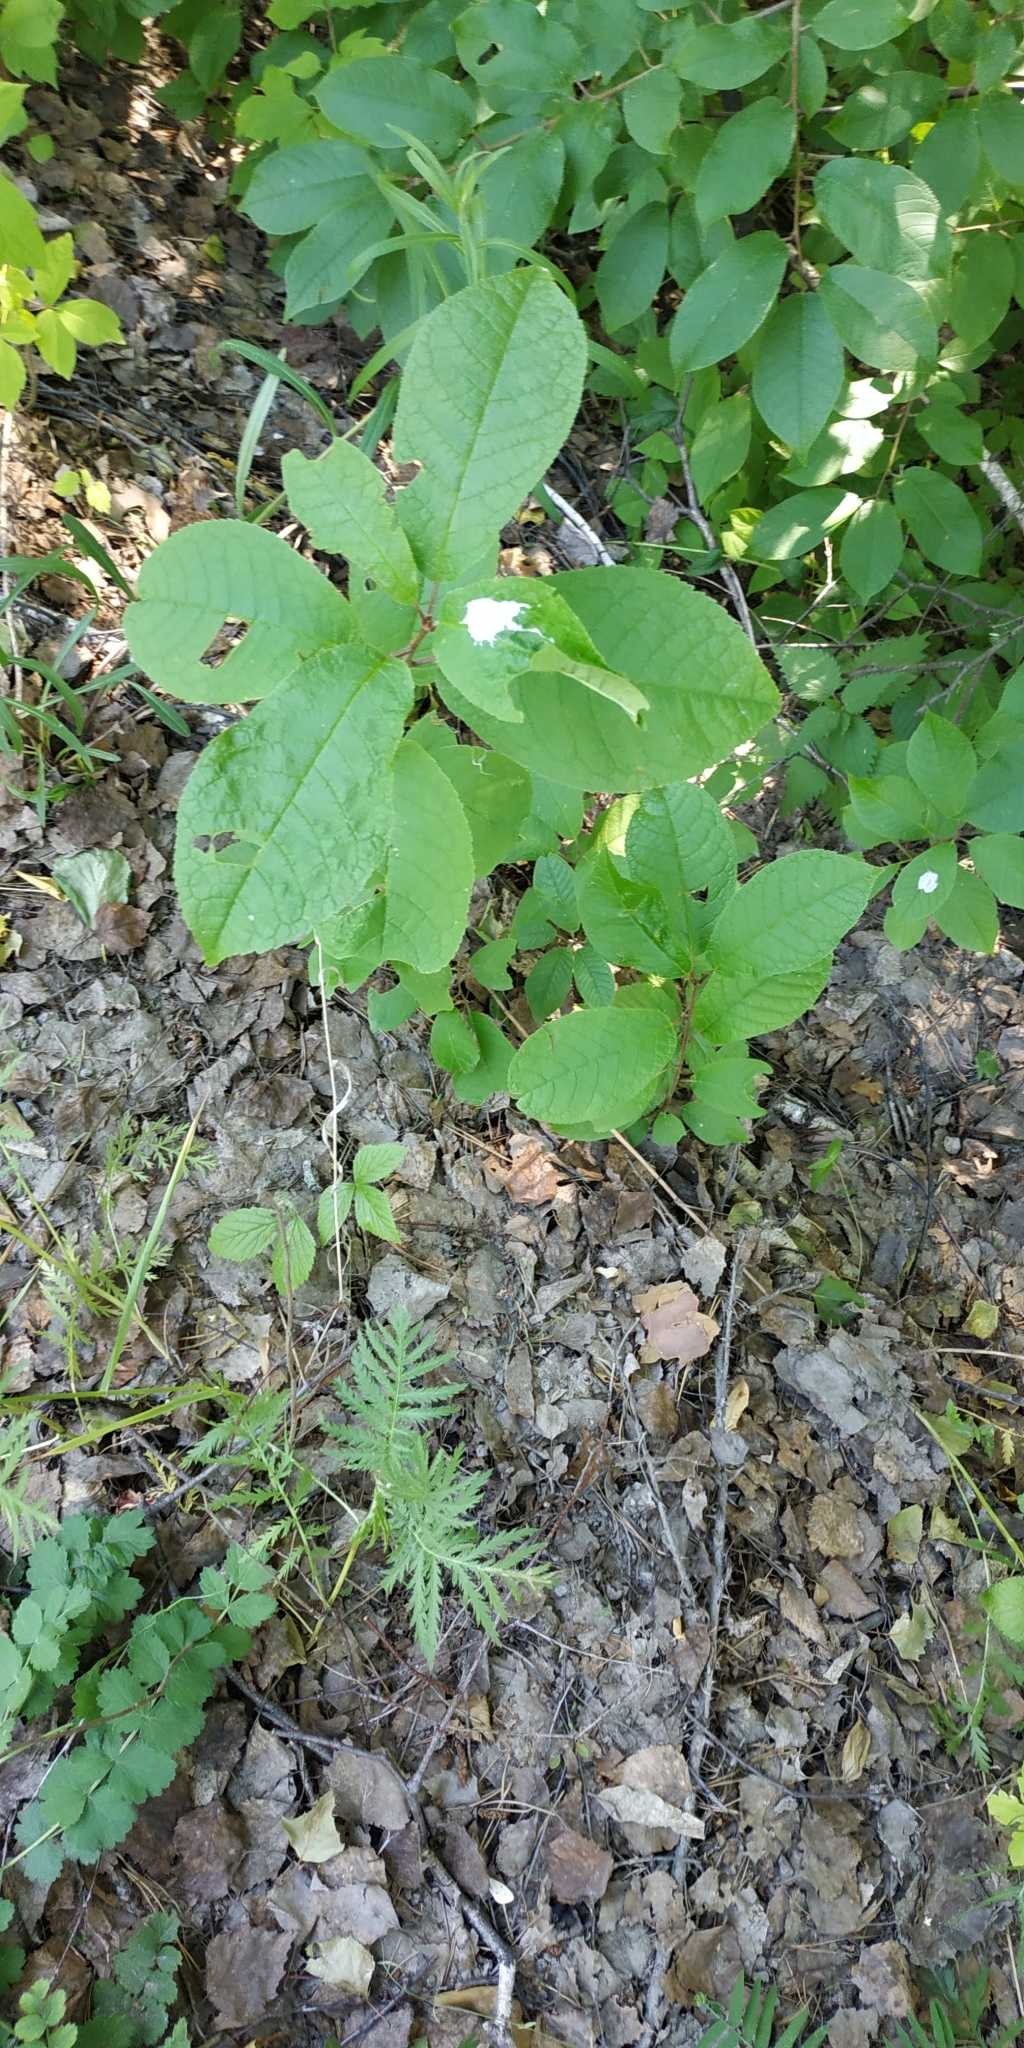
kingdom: Plantae
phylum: Tracheophyta
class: Magnoliopsida
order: Rosales
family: Rosaceae
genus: Prunus
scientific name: Prunus padus
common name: Bird cherry
